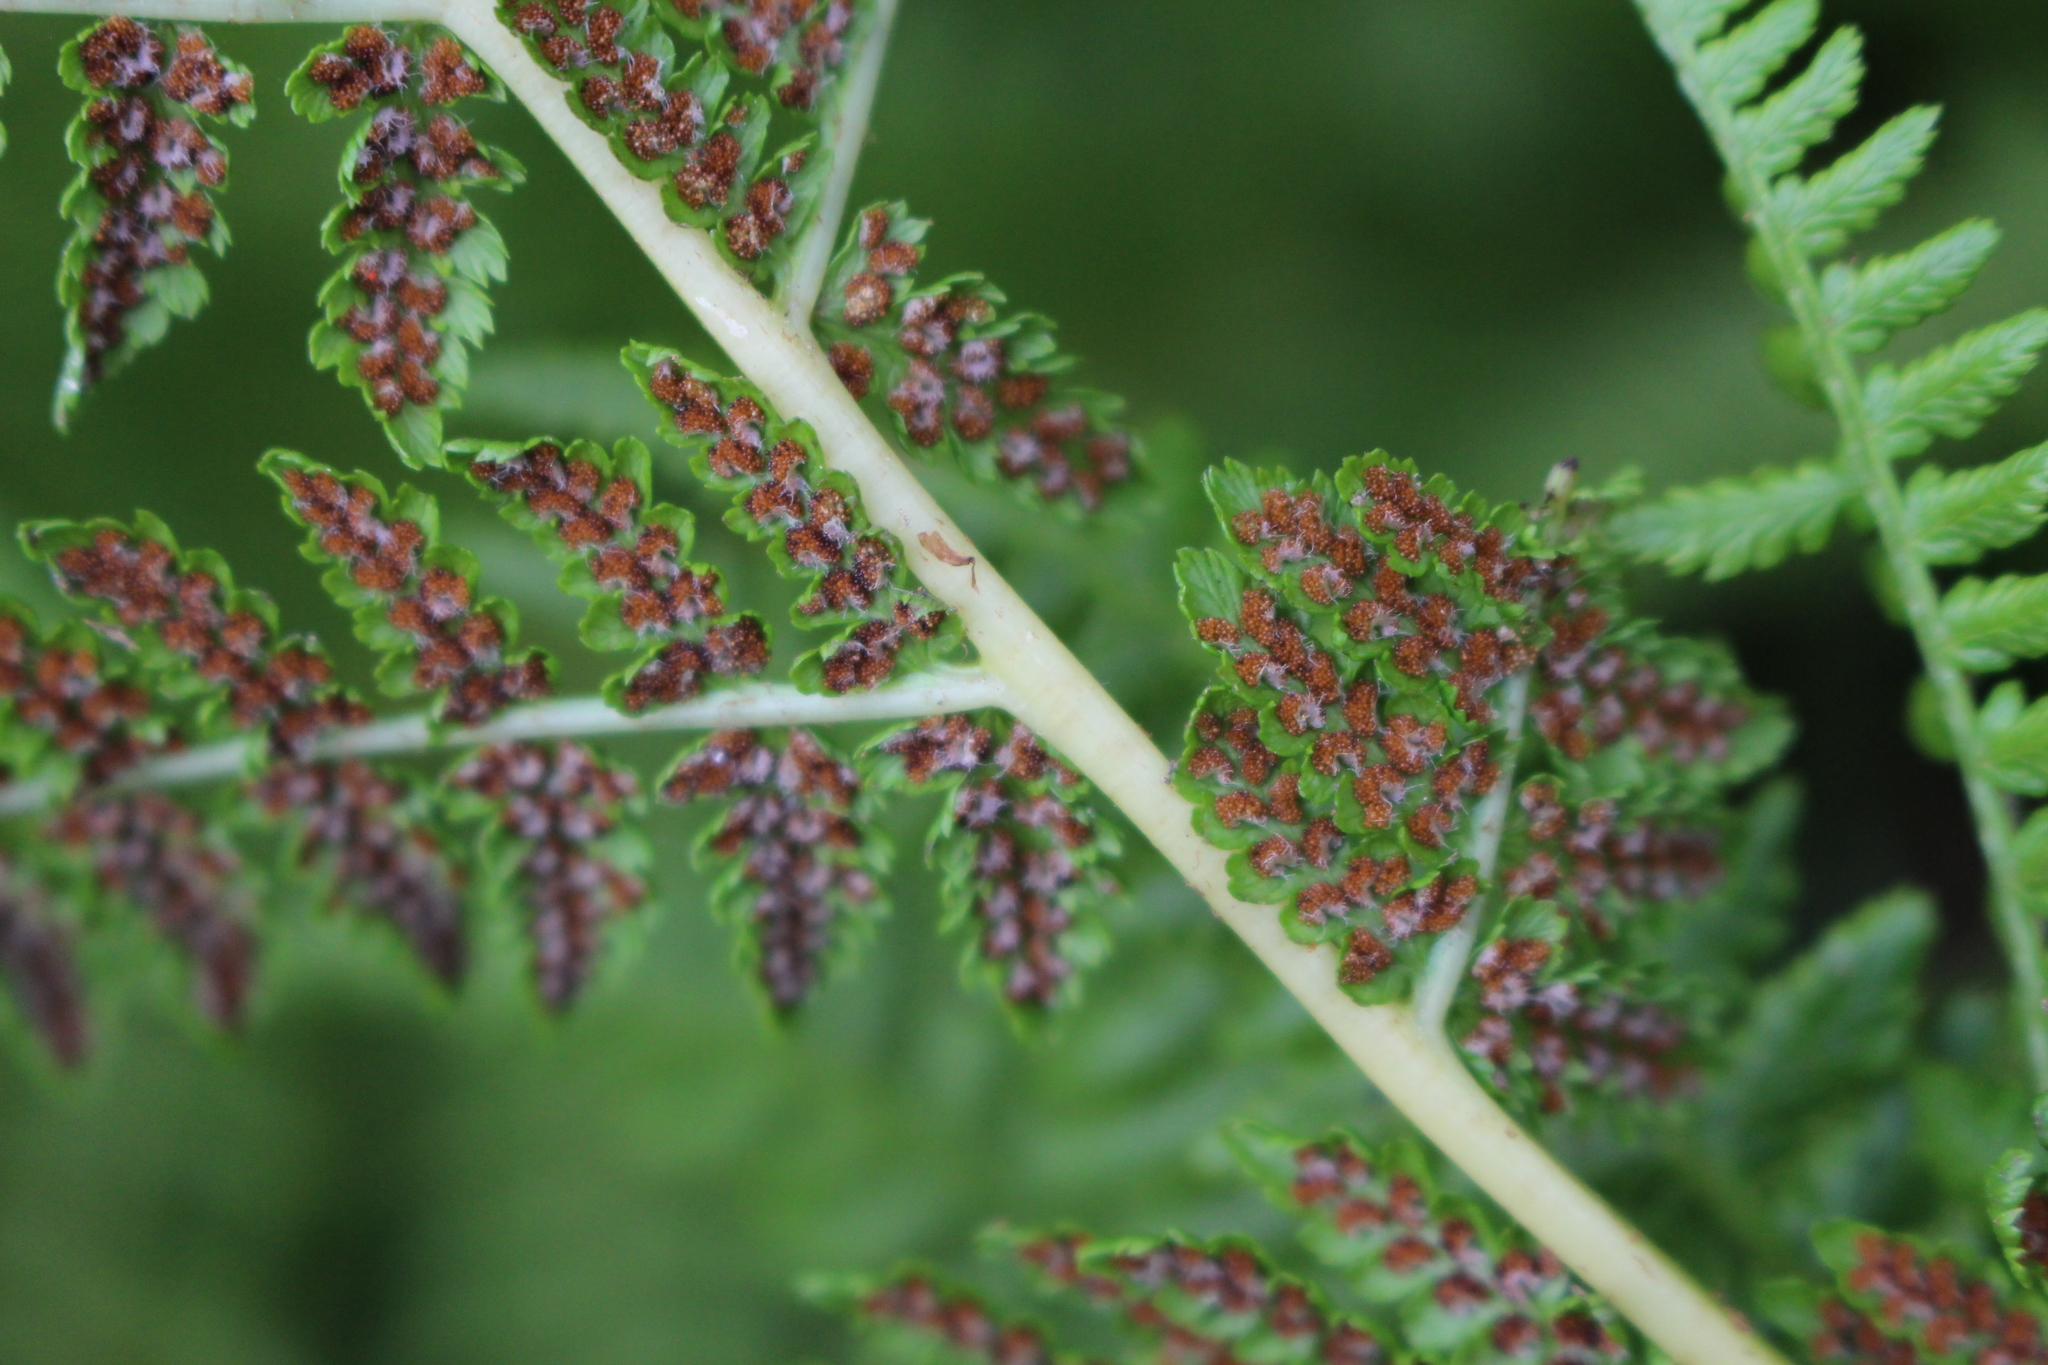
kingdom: Plantae
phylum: Tracheophyta
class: Polypodiopsida
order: Polypodiales
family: Athyriaceae
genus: Athyrium
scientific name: Athyrium filix-femina
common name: Lady fern
